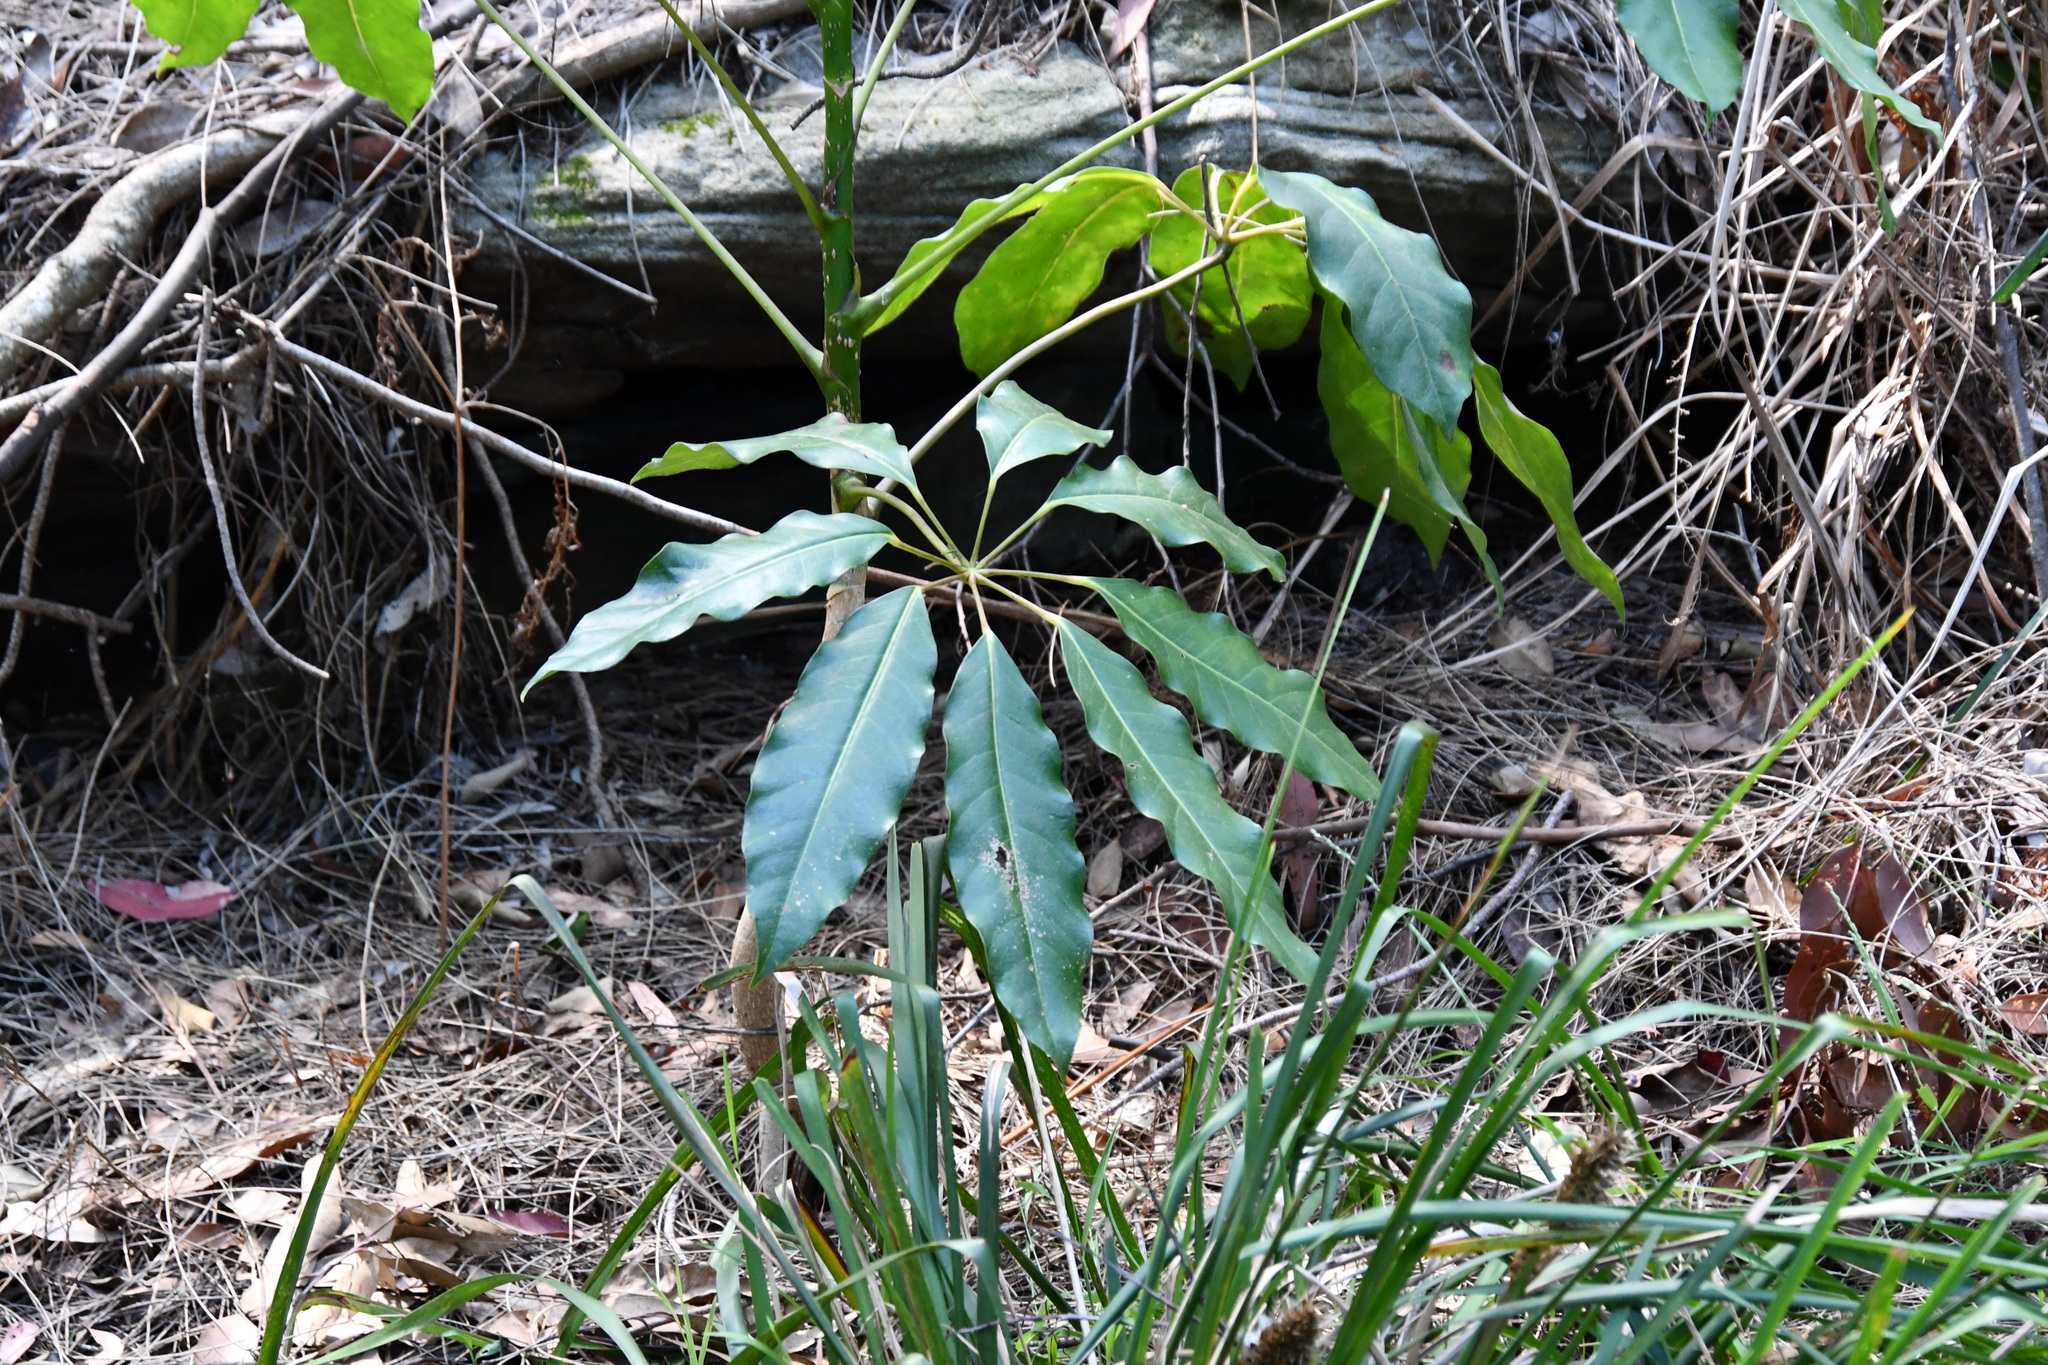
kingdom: Plantae
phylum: Tracheophyta
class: Magnoliopsida
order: Apiales
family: Araliaceae
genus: Heptapleurum
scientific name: Heptapleurum actinophyllum
